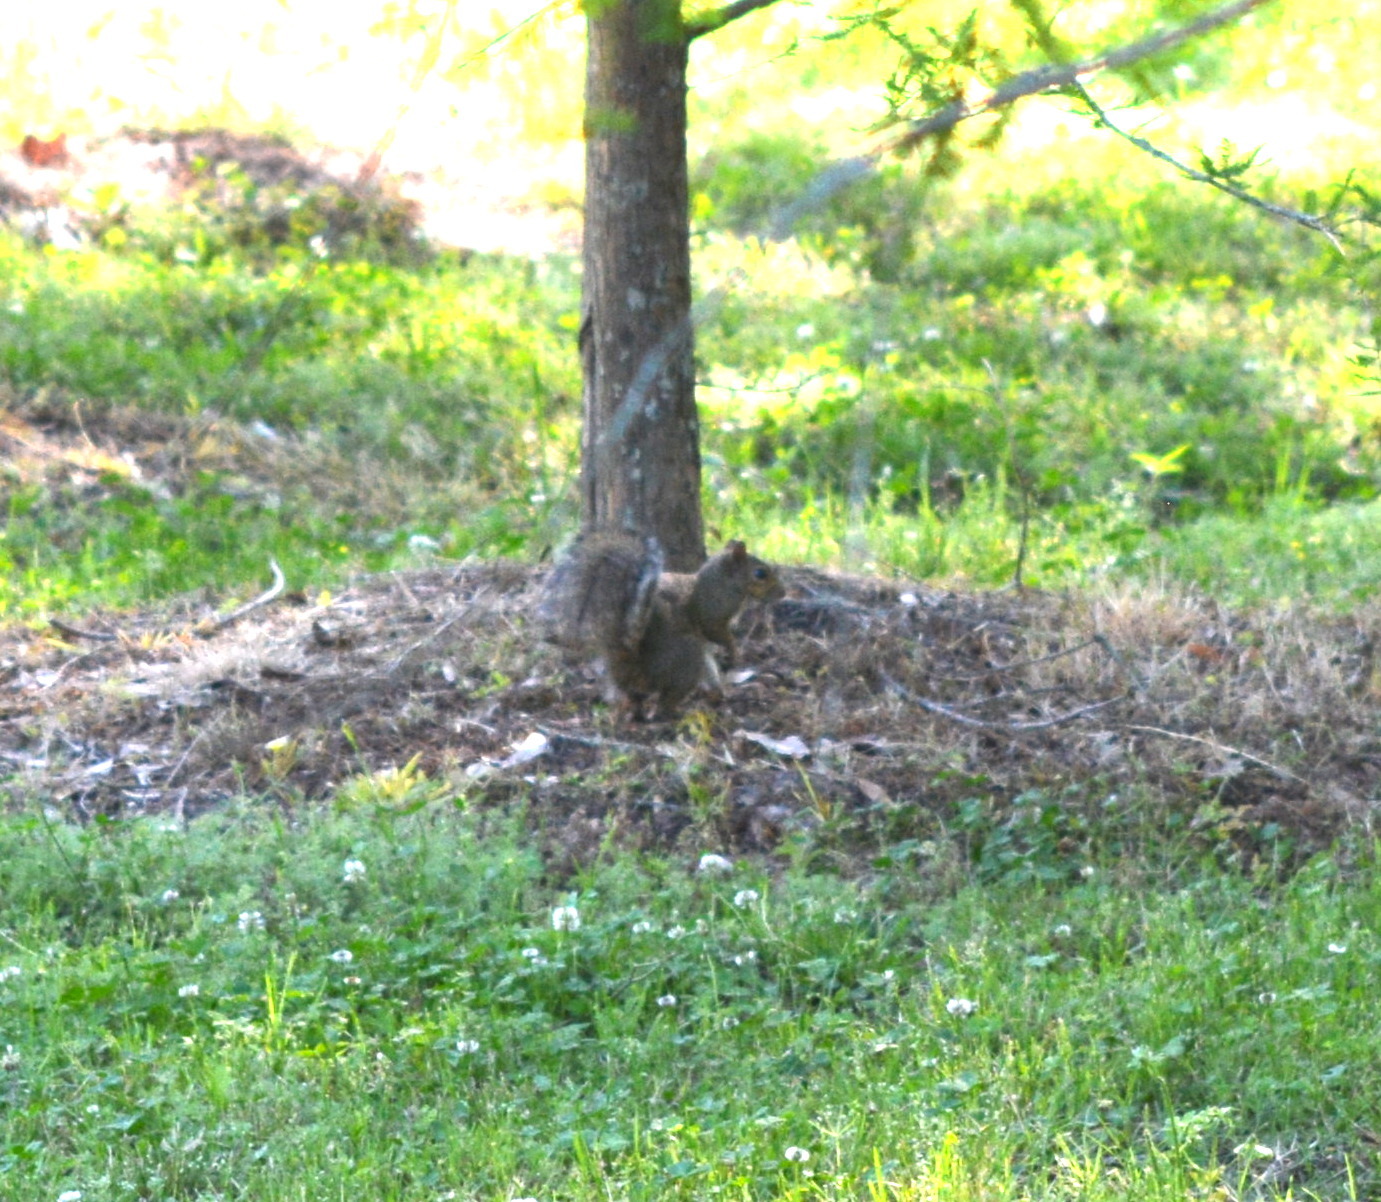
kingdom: Animalia
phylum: Chordata
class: Mammalia
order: Rodentia
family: Sciuridae
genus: Sciurus
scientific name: Sciurus carolinensis
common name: Eastern gray squirrel
